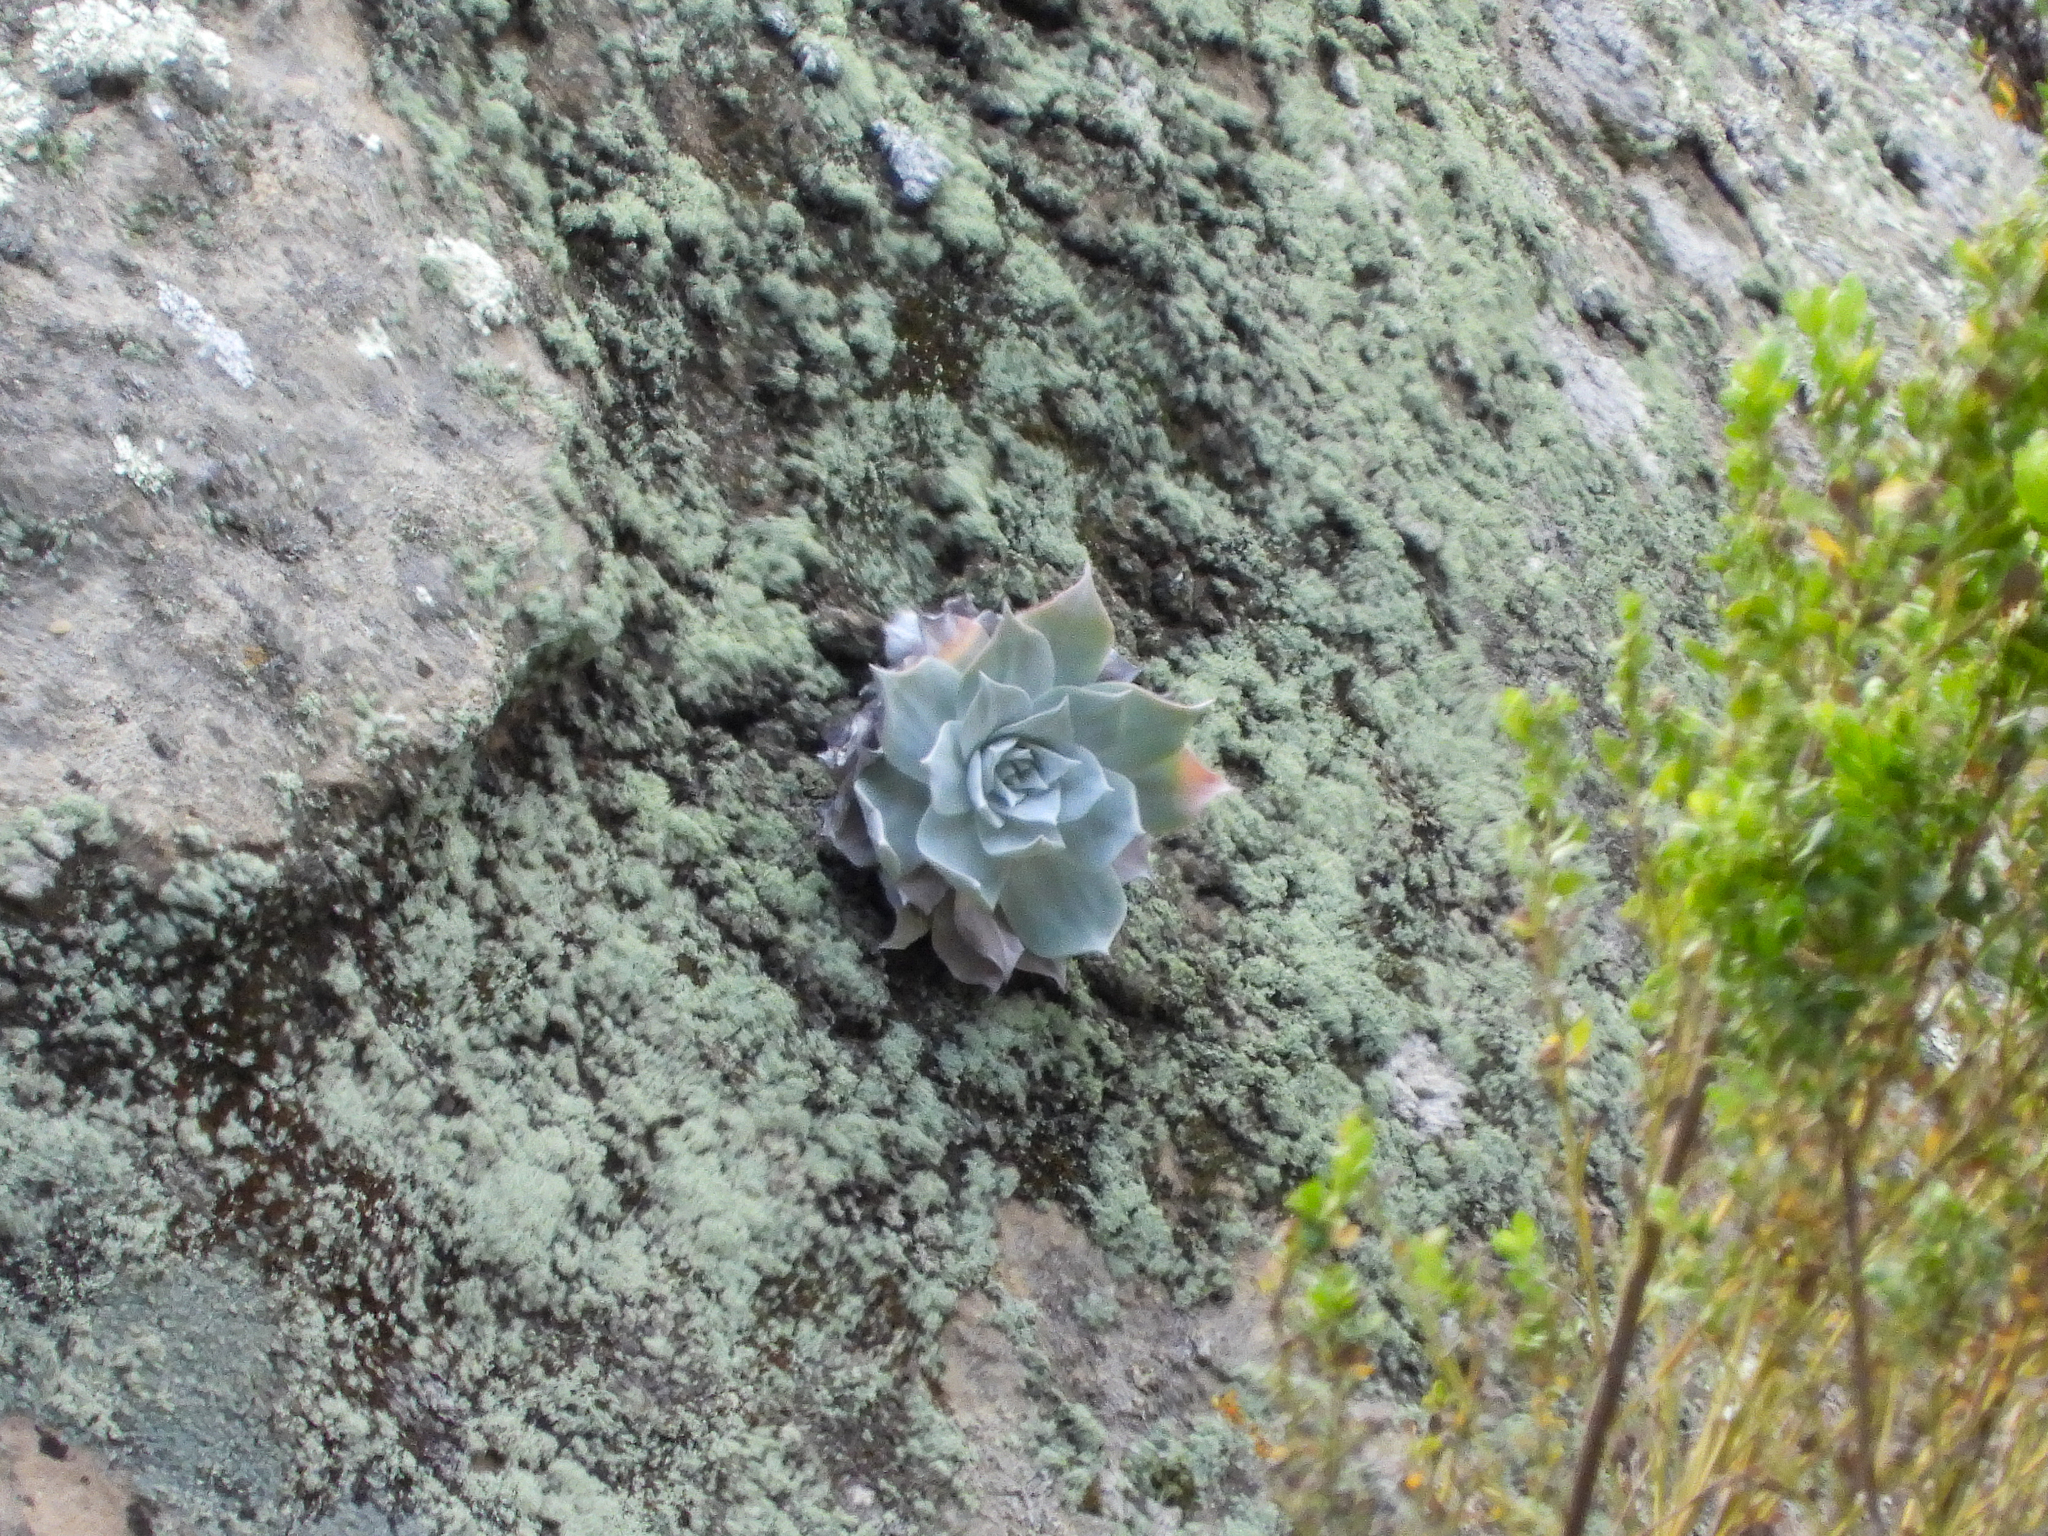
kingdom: Plantae
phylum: Tracheophyta
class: Magnoliopsida
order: Saxifragales
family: Crassulaceae
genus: Dudleya
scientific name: Dudleya pulverulenta
